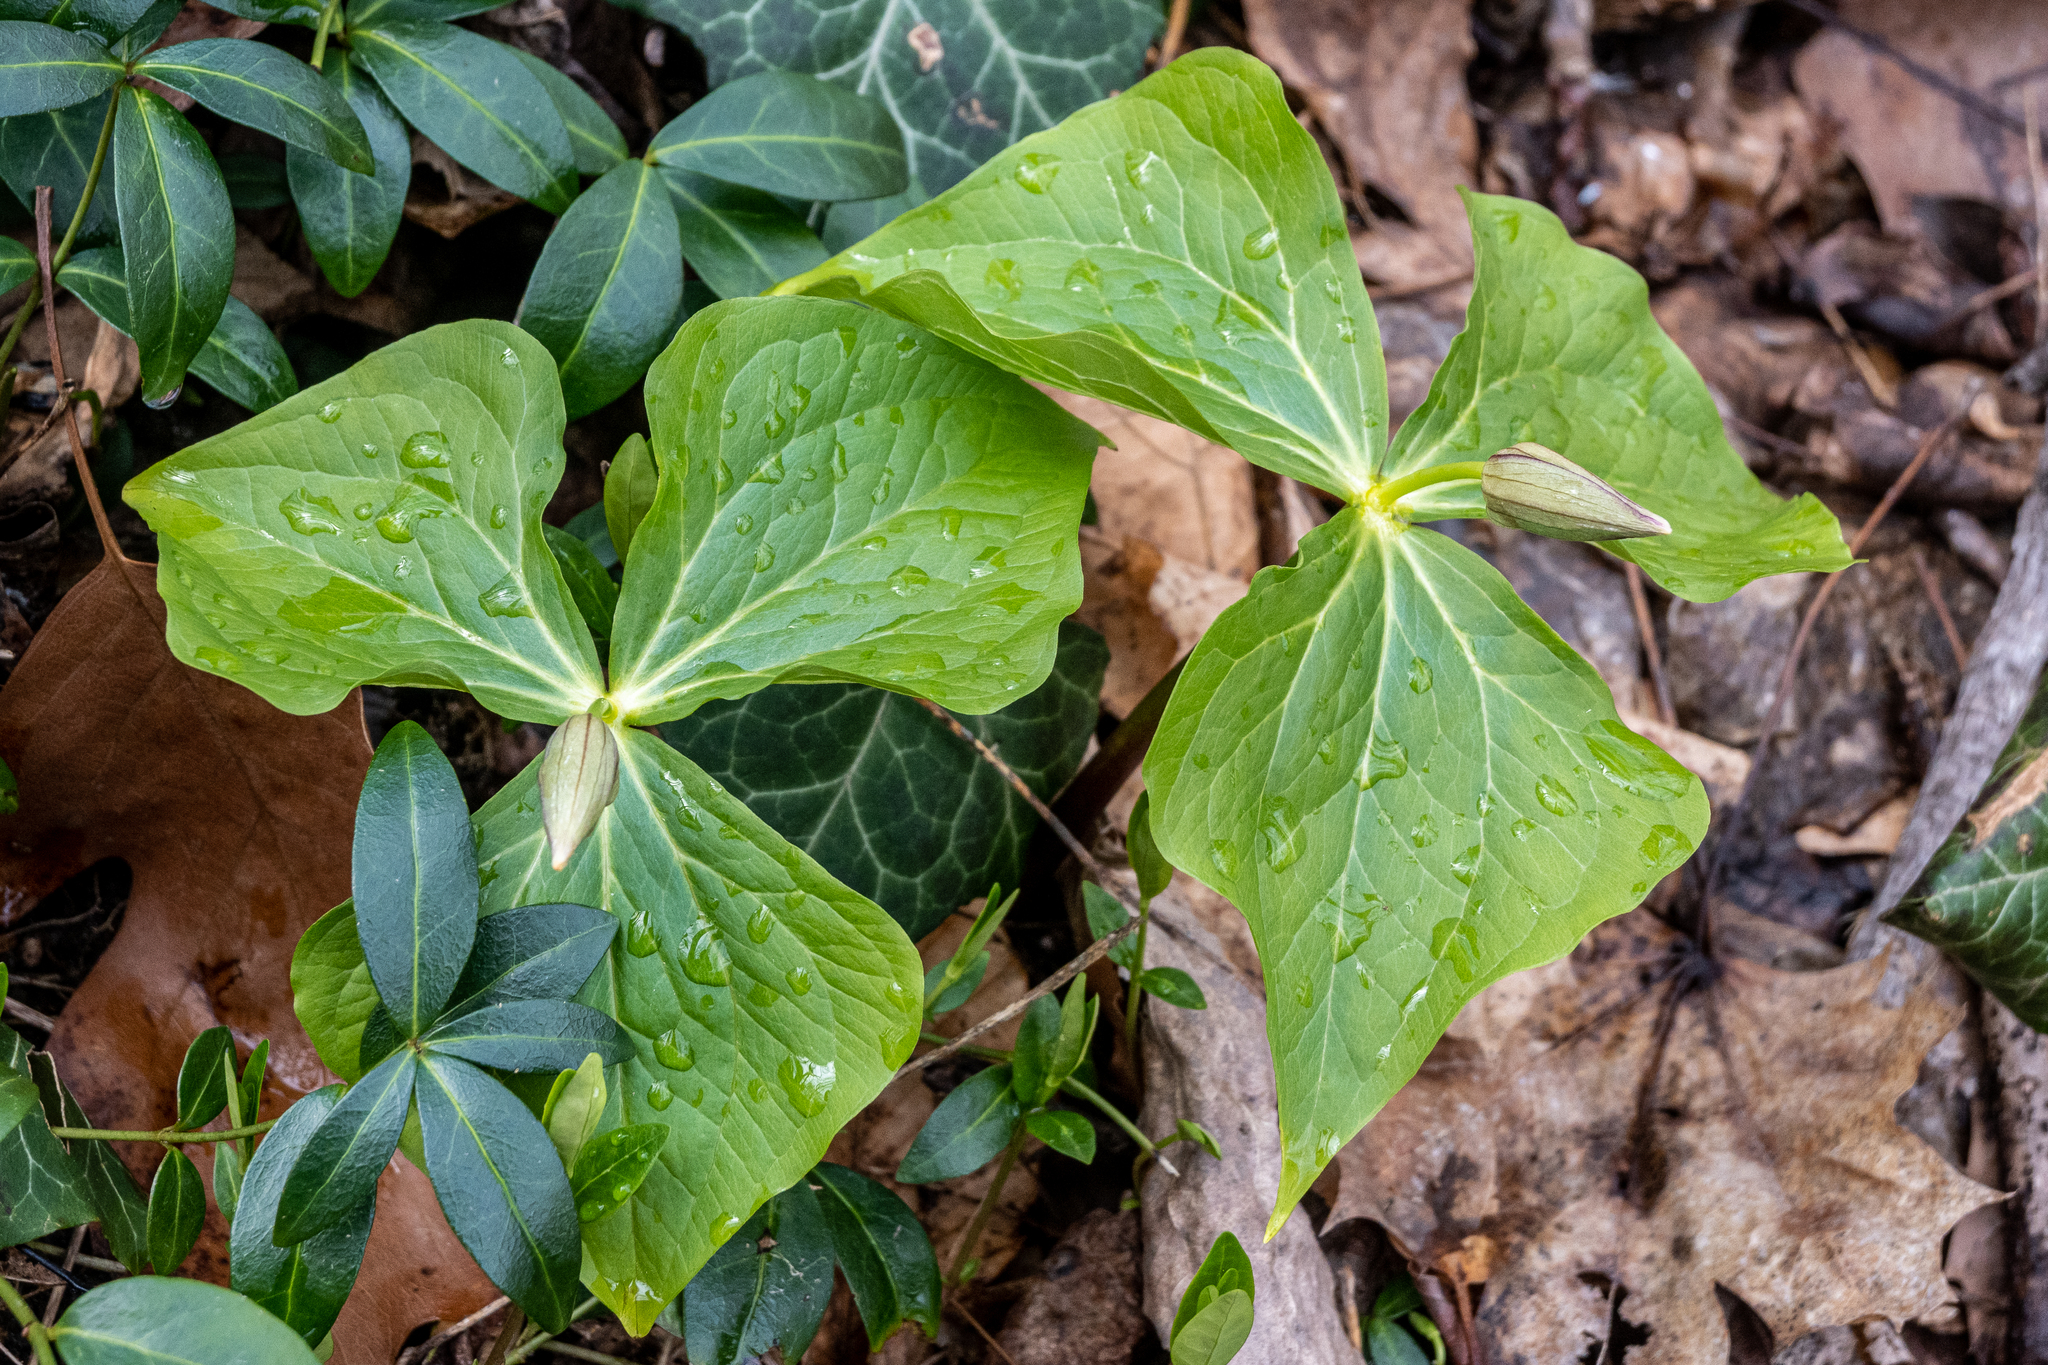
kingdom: Plantae
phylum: Tracheophyta
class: Liliopsida
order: Liliales
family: Melanthiaceae
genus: Trillium
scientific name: Trillium erectum
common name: Purple trillium
